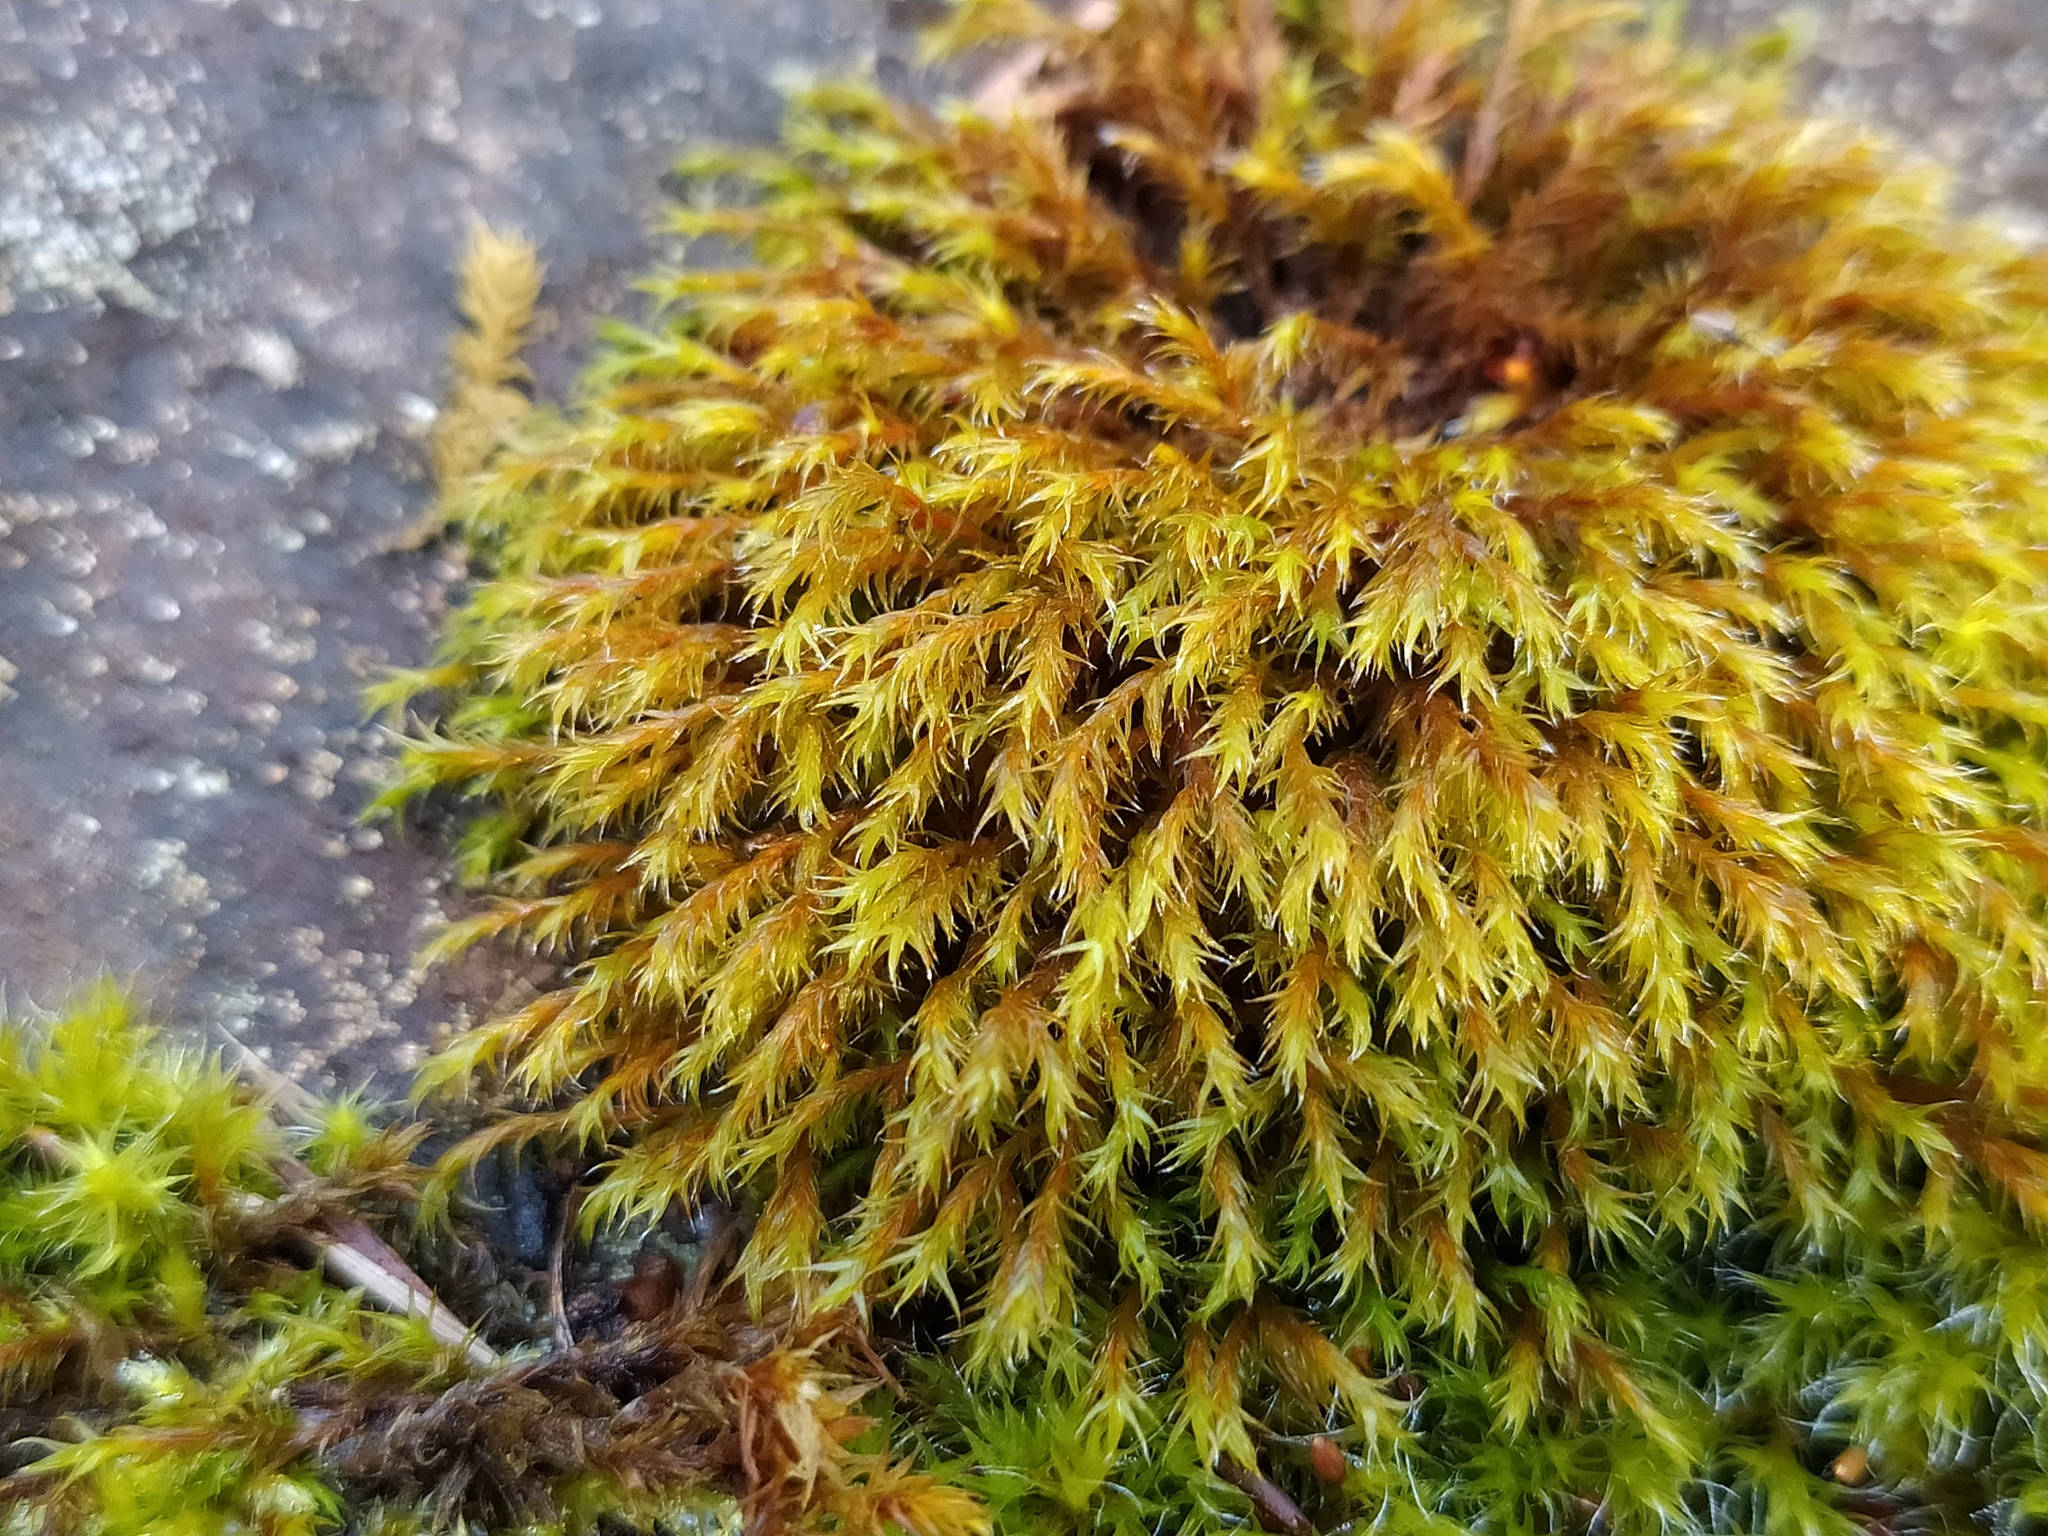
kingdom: Plantae
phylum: Bryophyta
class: Bryopsida
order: Grimmiales
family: Grimmiaceae
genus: Schistidium
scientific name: Schistidium papillosum
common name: Papillose bloom moss
